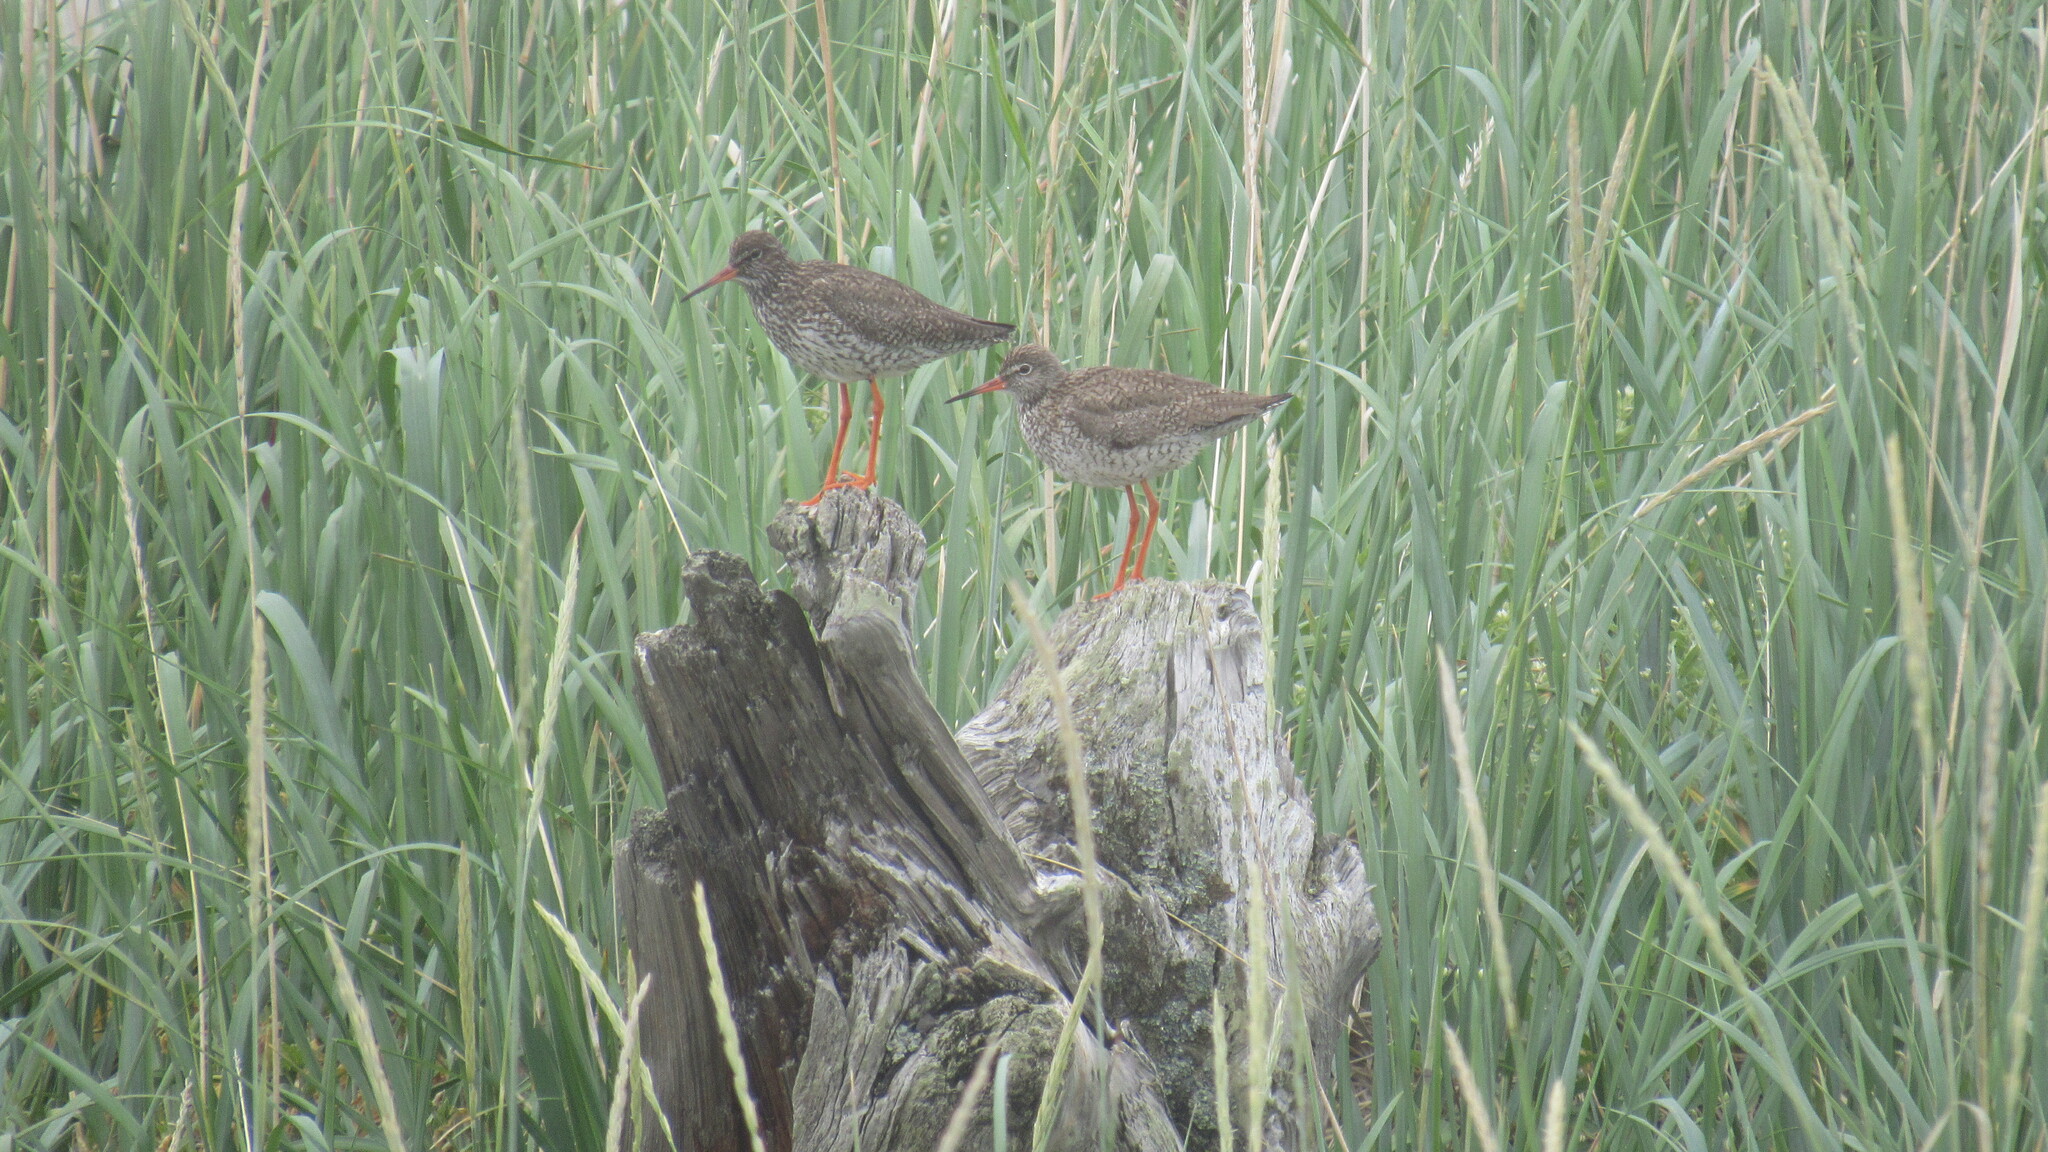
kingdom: Animalia
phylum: Chordata
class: Aves
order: Charadriiformes
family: Scolopacidae
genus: Tringa
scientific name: Tringa totanus
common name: Common redshank
